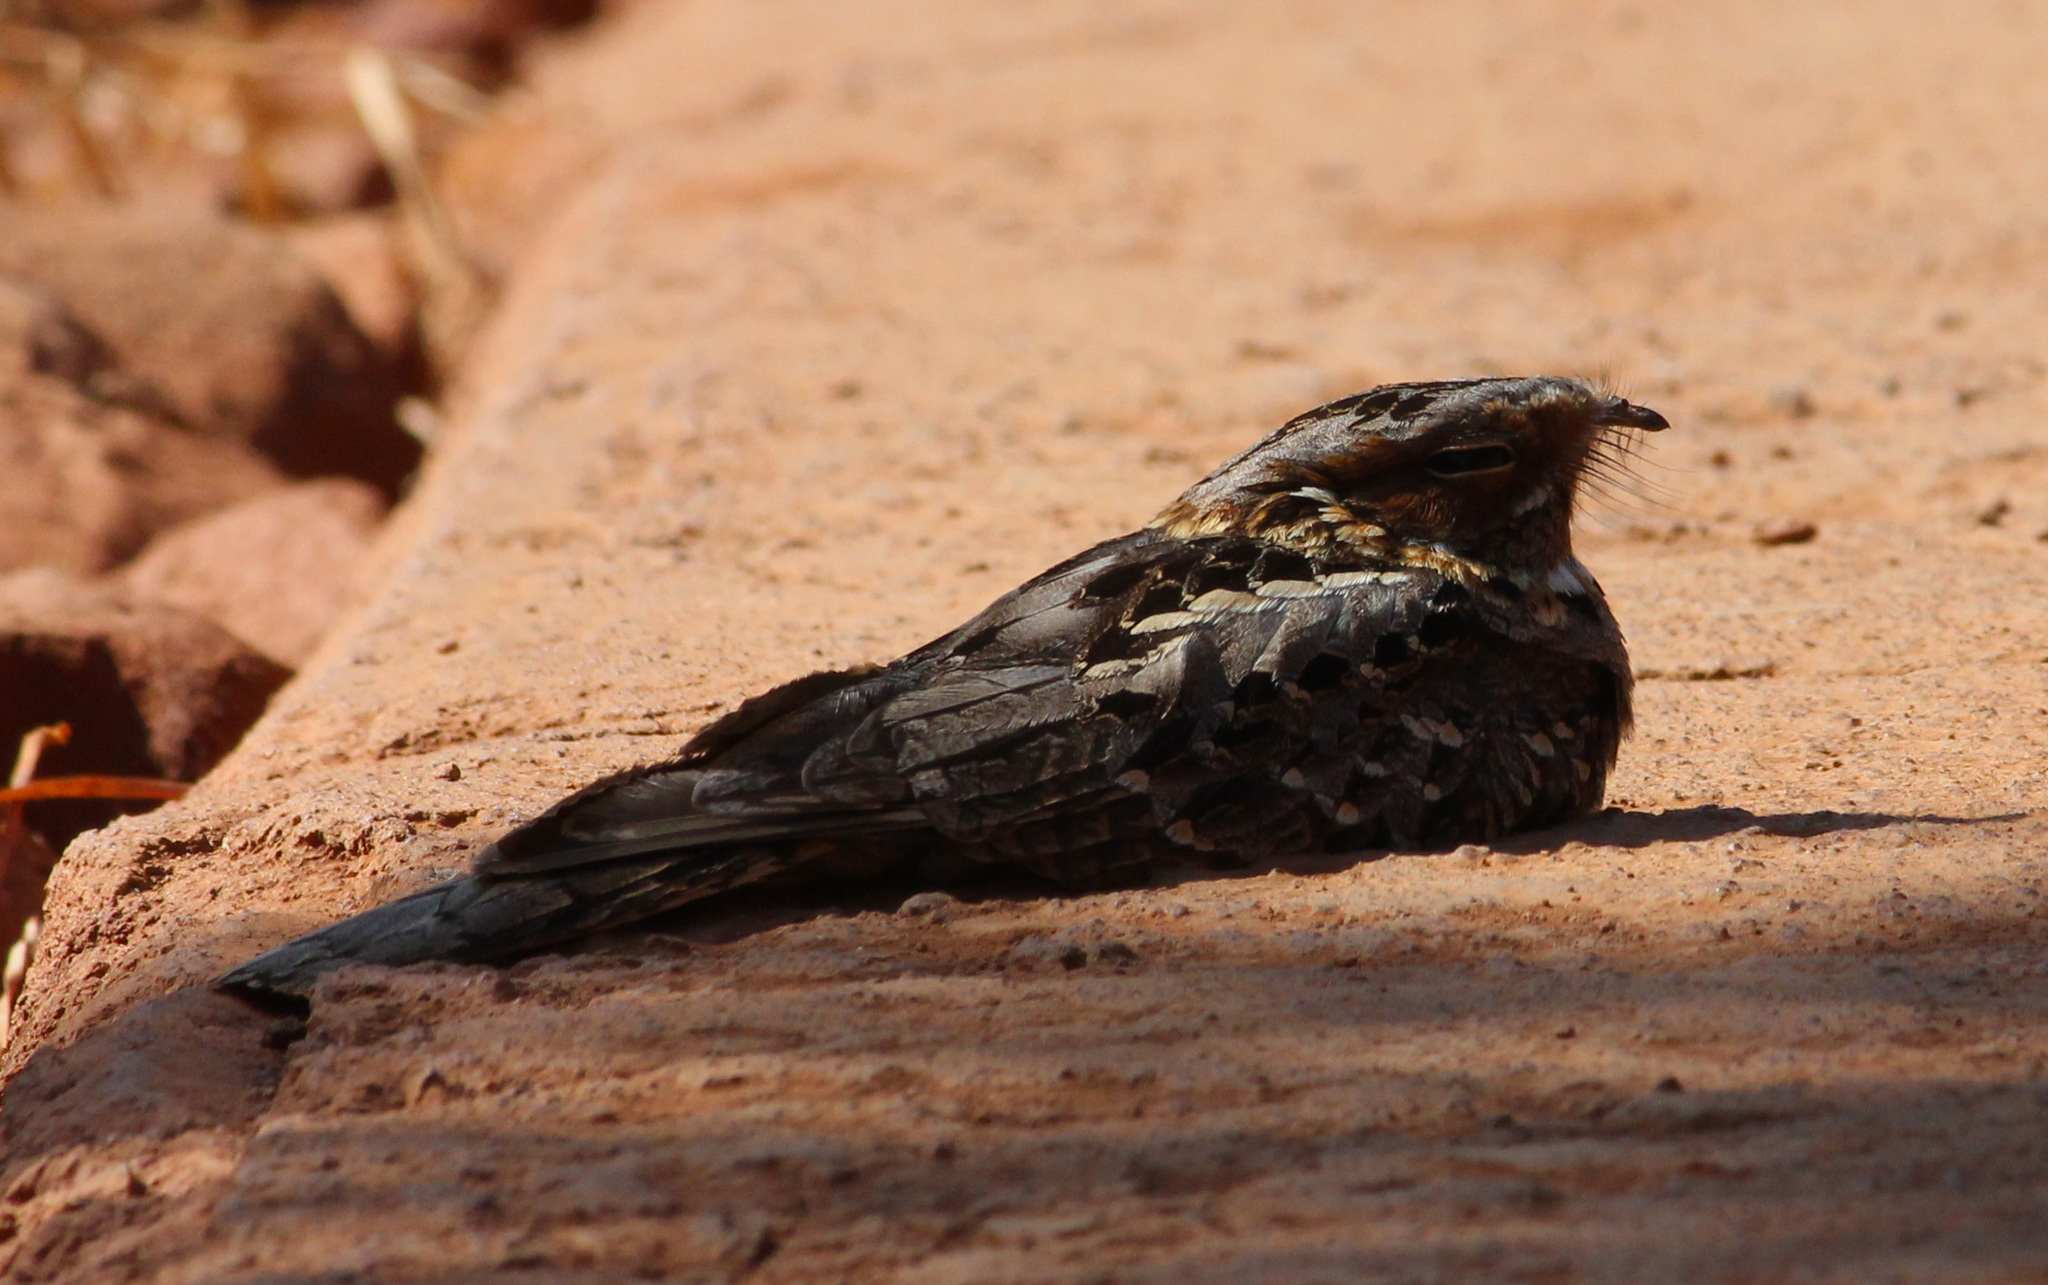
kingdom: Animalia
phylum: Chordata
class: Aves
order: Caprimulgiformes
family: Caprimulgidae
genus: Caprimulgus
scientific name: Caprimulgus pectoralis
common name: Fiery-necked nightjar
